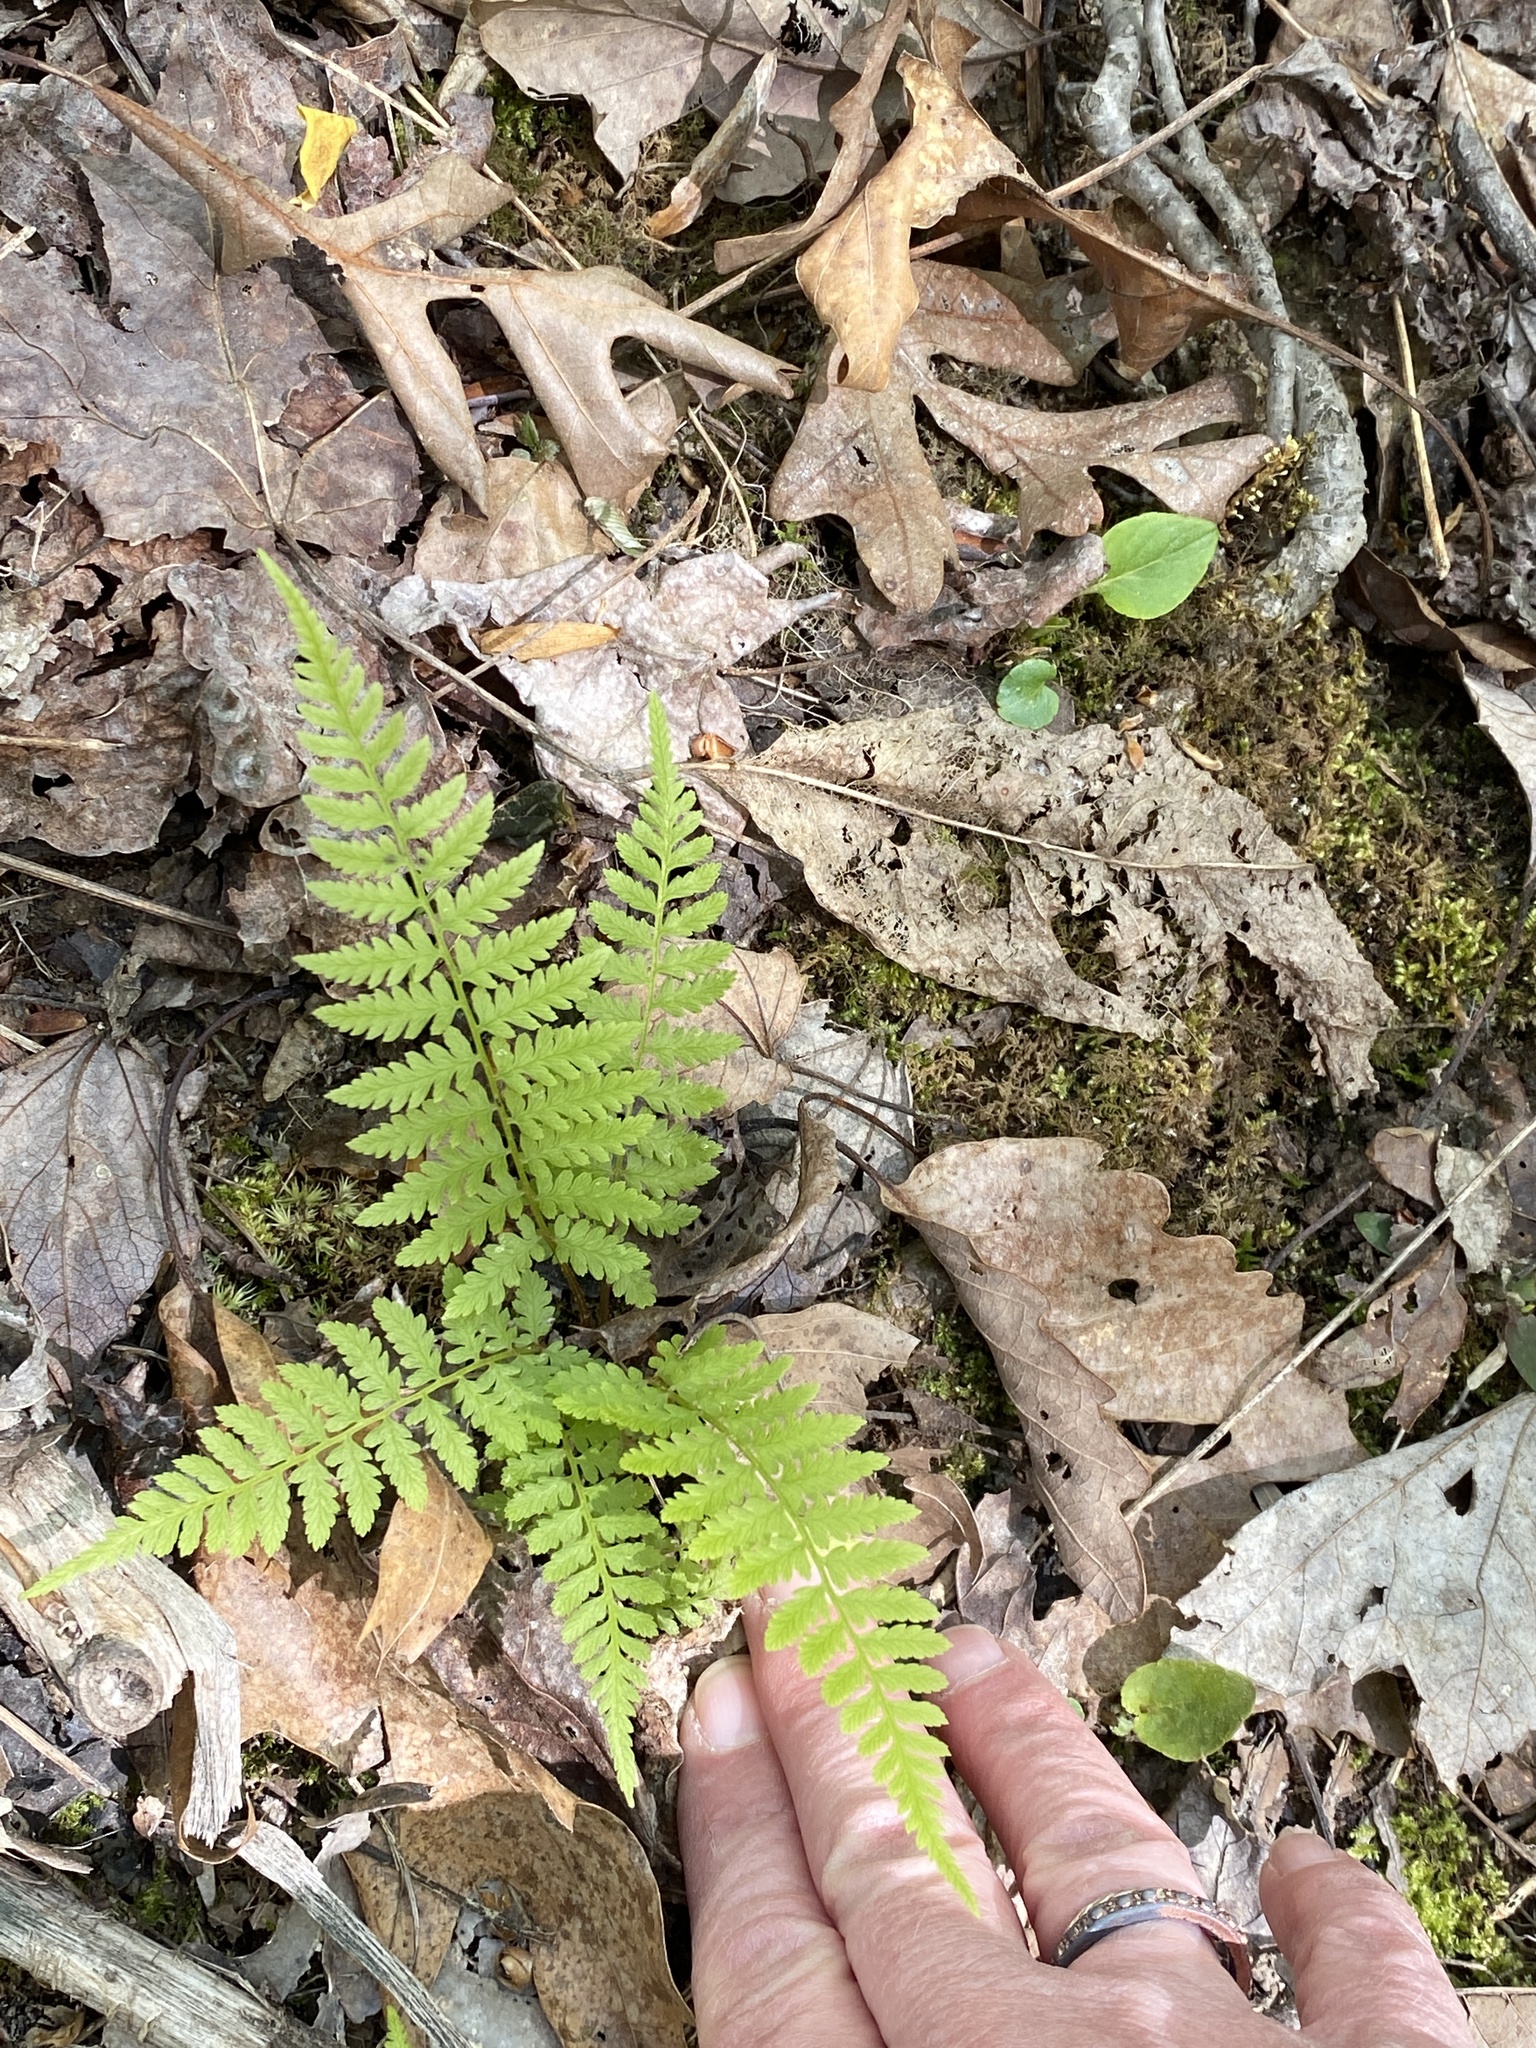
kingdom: Plantae
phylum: Tracheophyta
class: Polypodiopsida
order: Polypodiales
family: Athyriaceae
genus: Athyrium
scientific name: Athyrium asplenioides
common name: Southern lady fern
